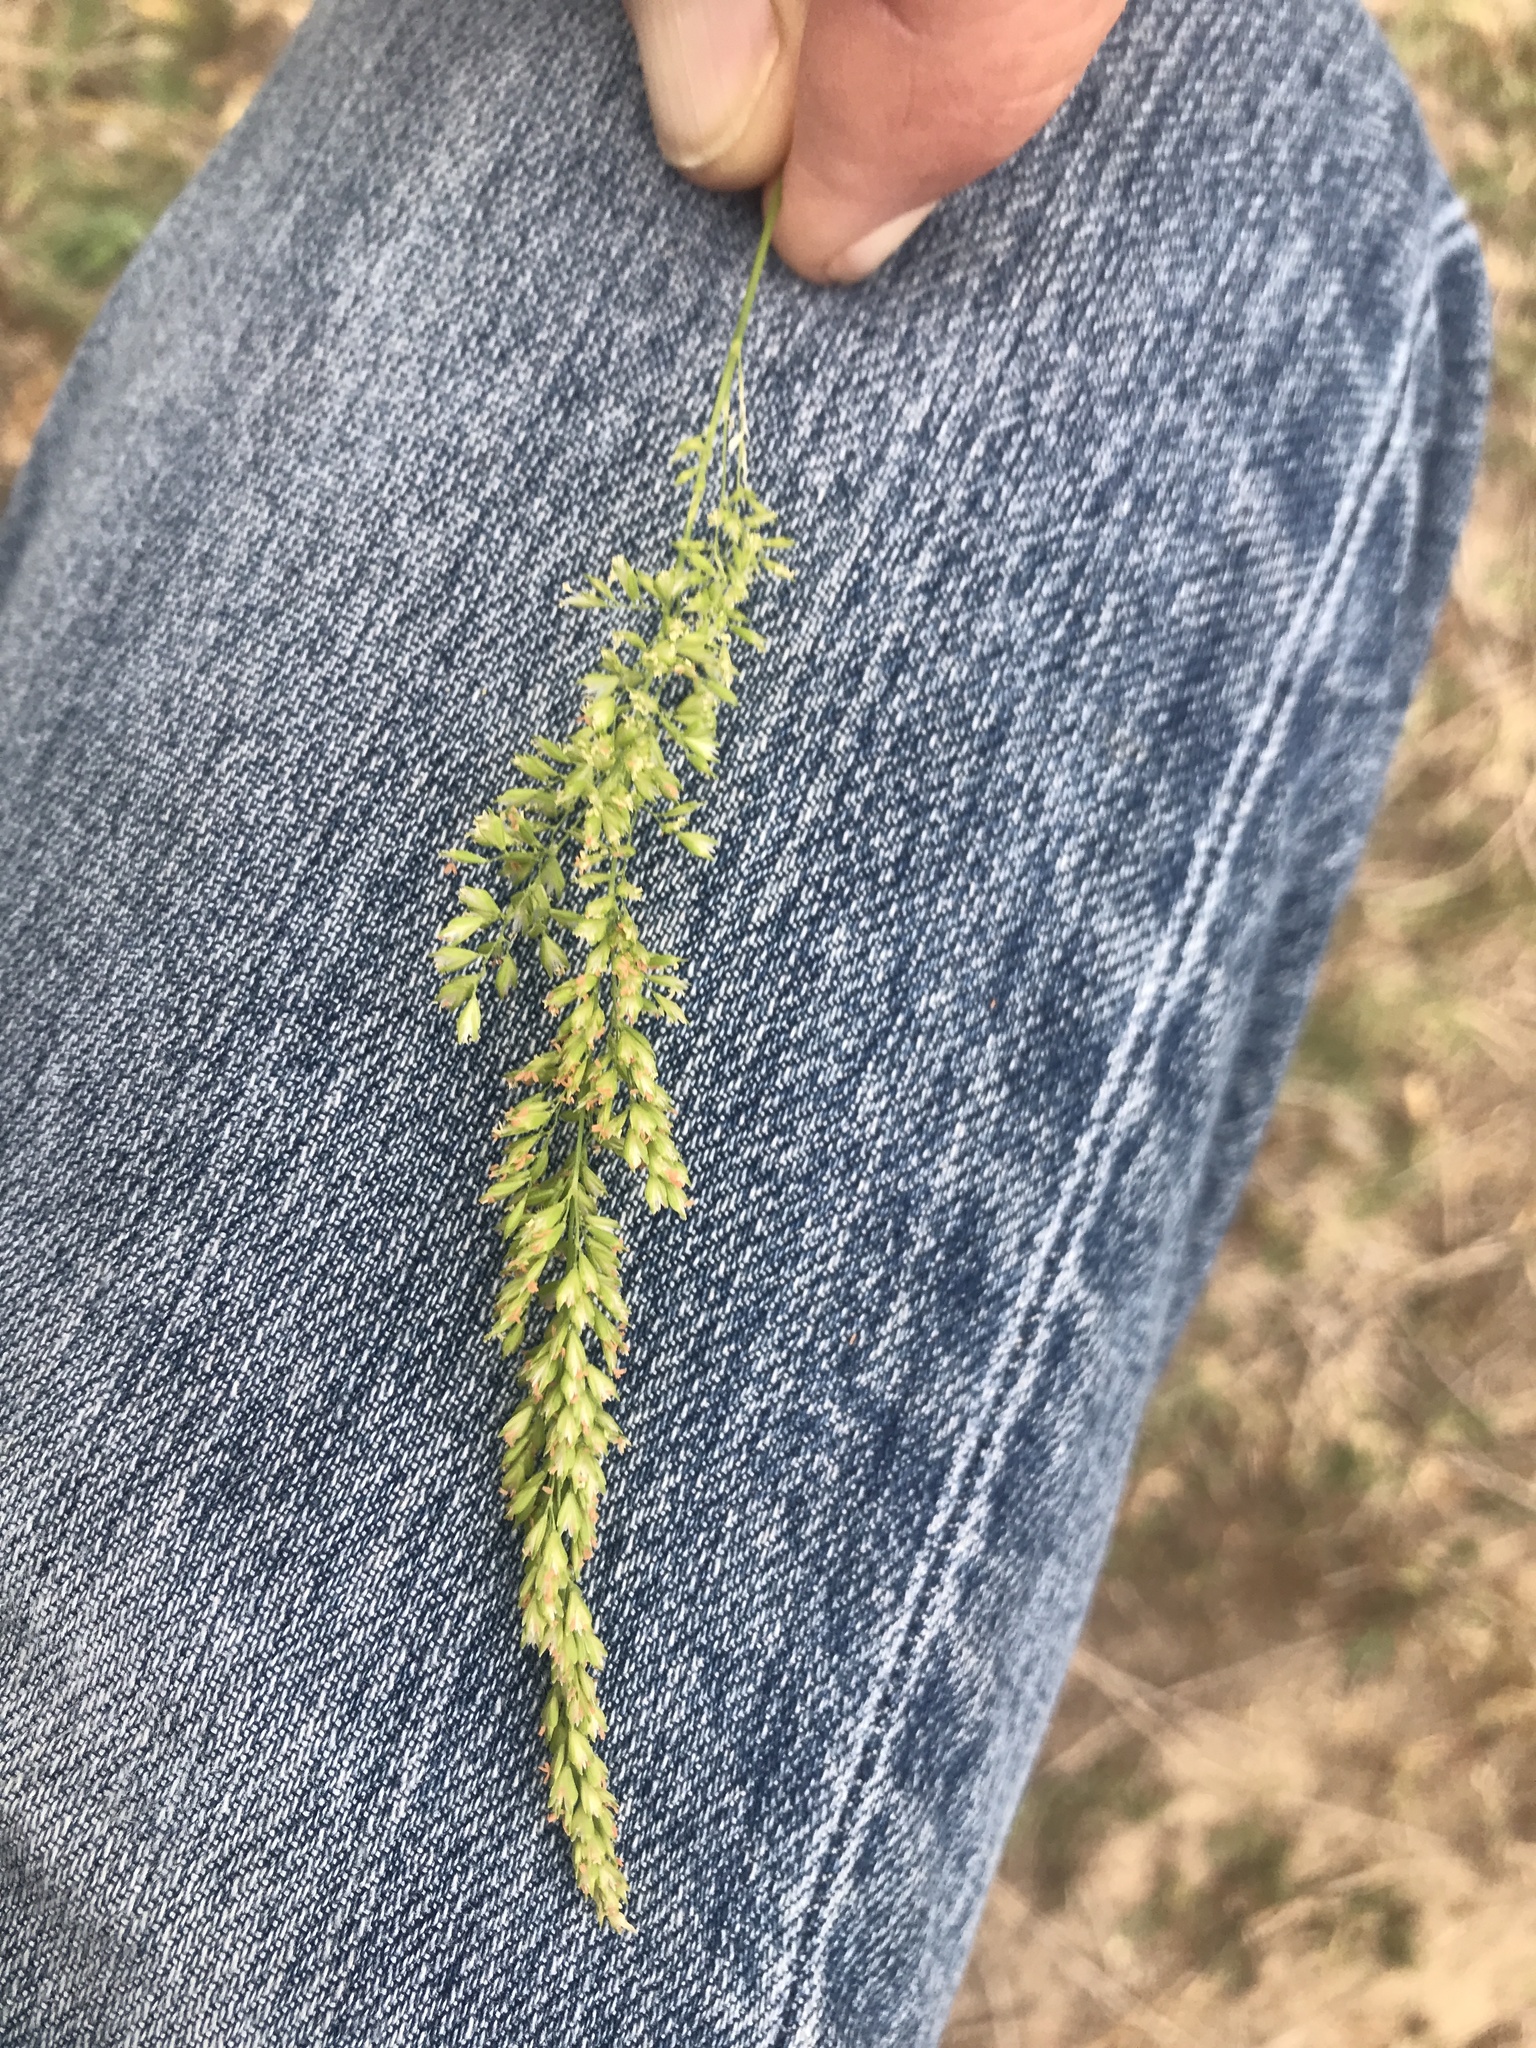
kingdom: Plantae
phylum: Tracheophyta
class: Liliopsida
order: Poales
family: Poaceae
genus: Sphenopholis
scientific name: Sphenopholis obtusata
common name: Prairie grass
